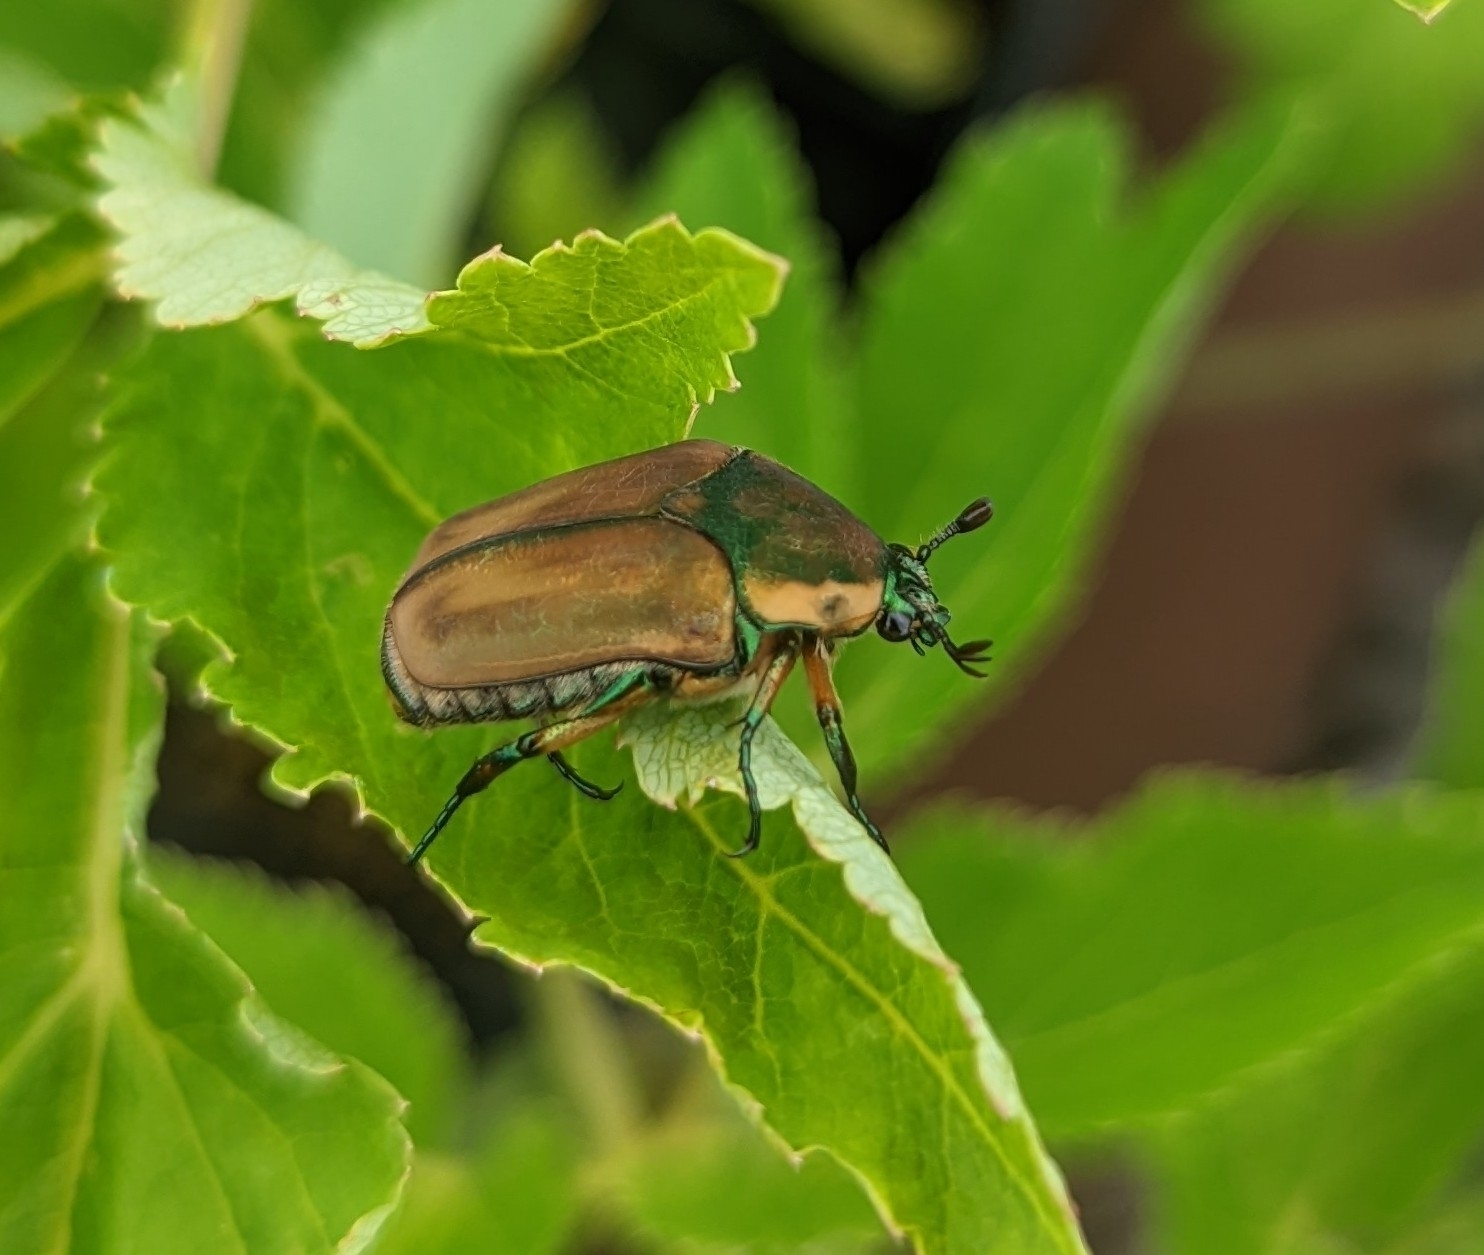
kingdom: Animalia
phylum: Arthropoda
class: Insecta
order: Coleoptera
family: Scarabaeidae
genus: Cotinis
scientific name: Cotinis nitida
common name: Common green june beetle
